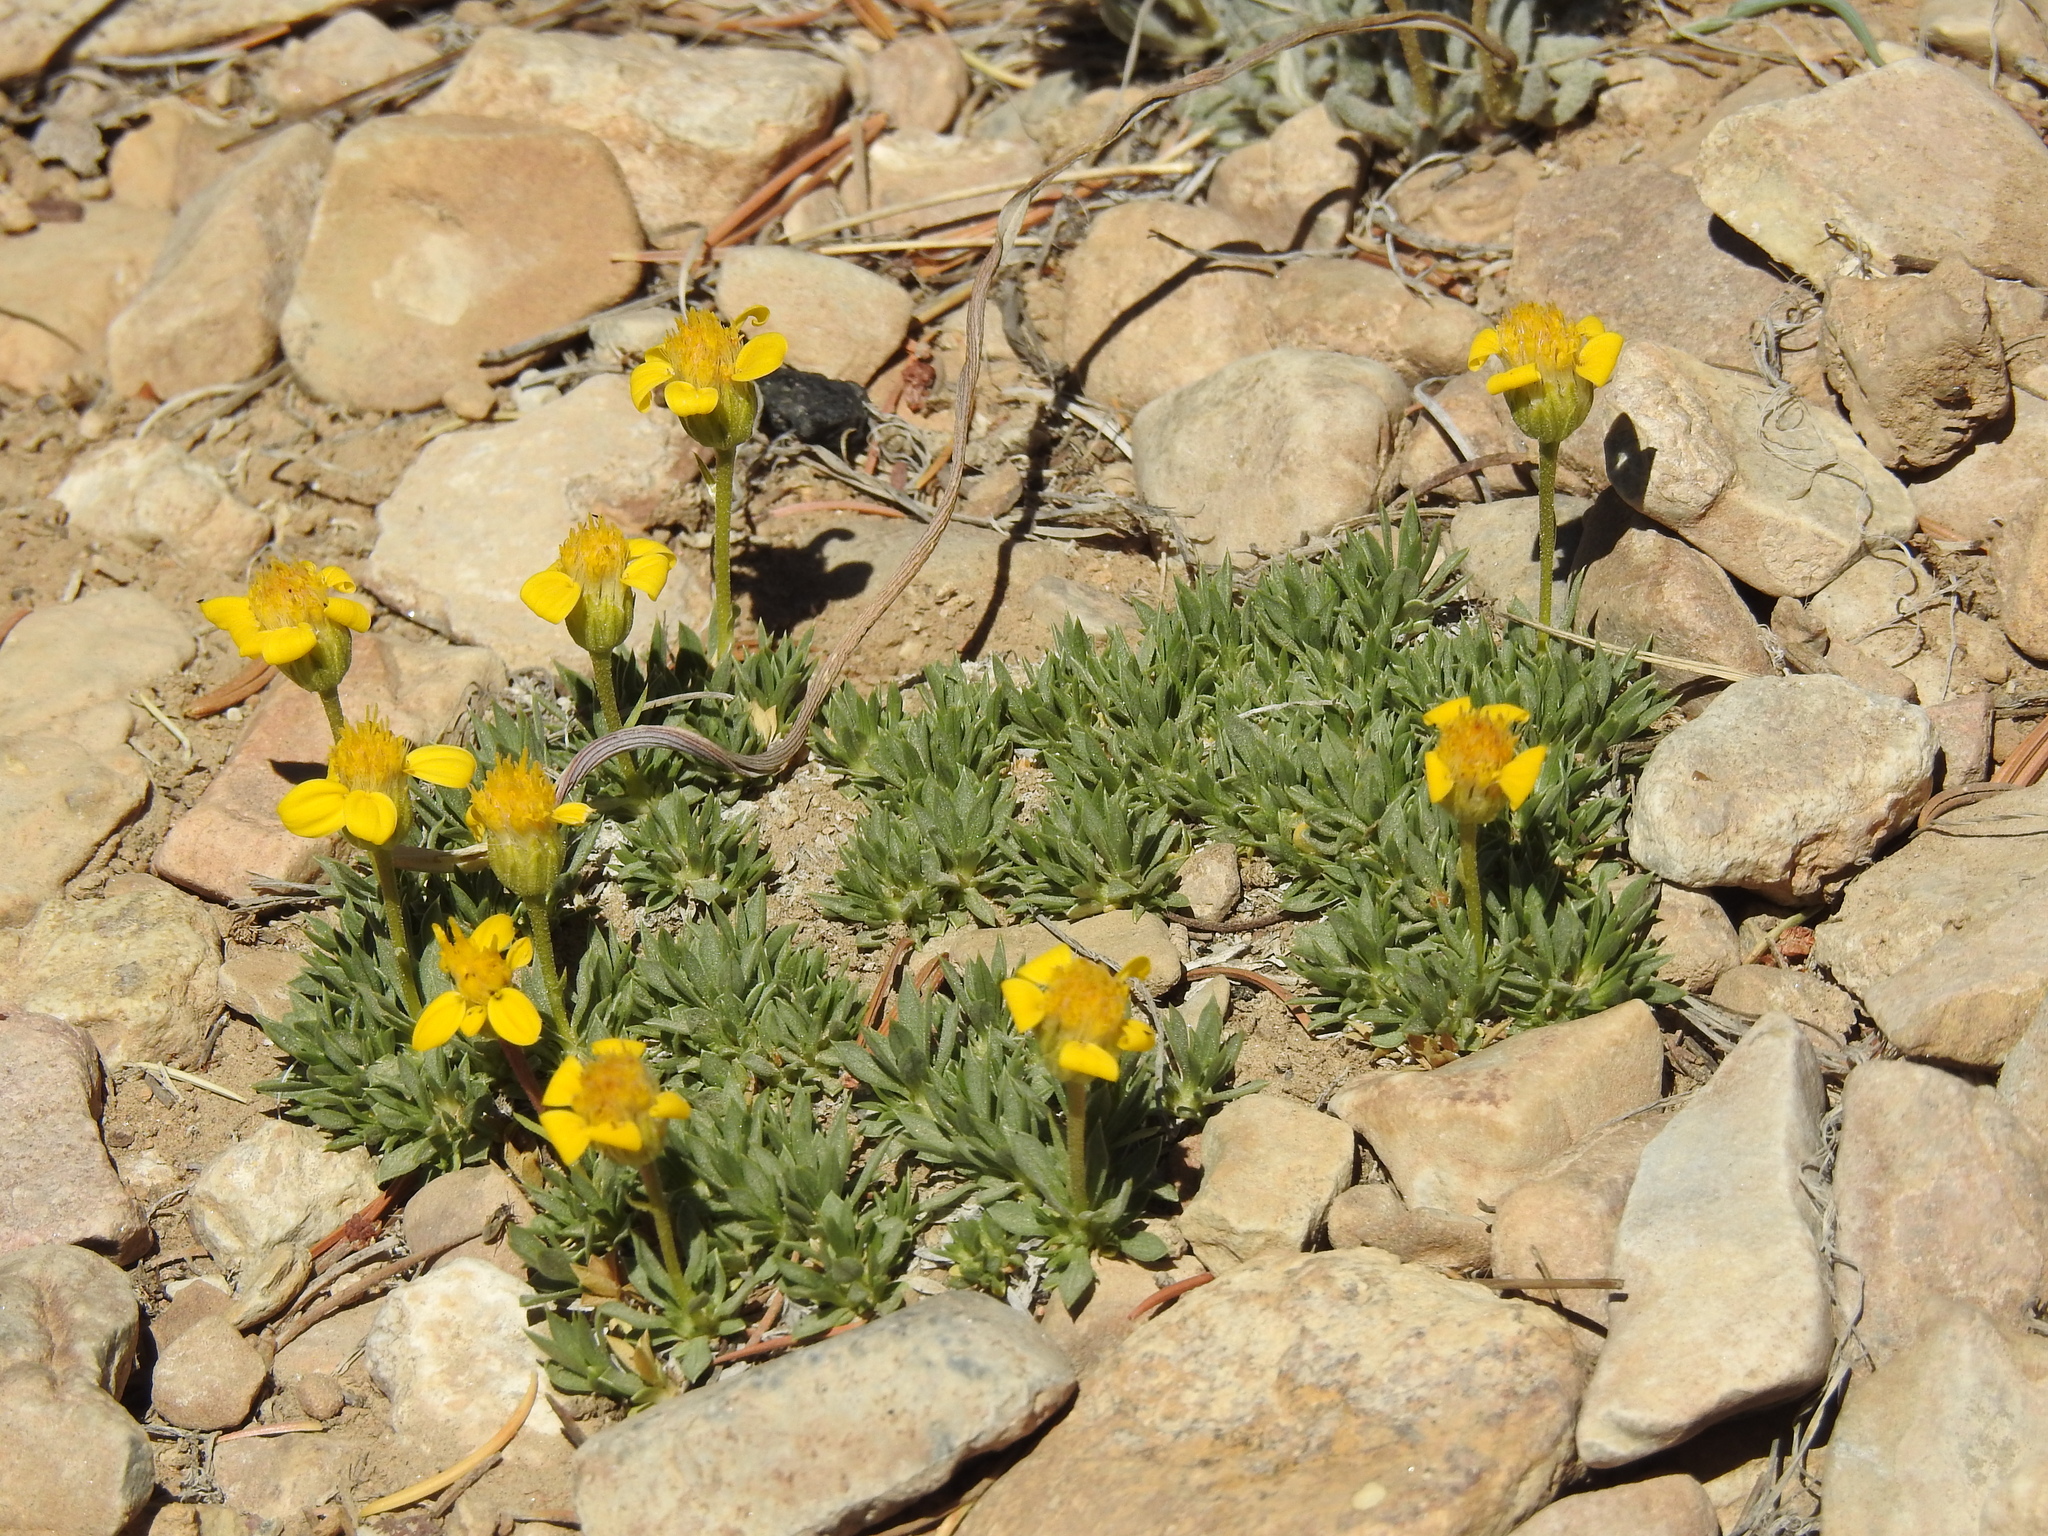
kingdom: Plantae
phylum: Tracheophyta
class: Magnoliopsida
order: Asterales
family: Asteraceae
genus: Stenotus
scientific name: Stenotus acaulis
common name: Stemless goldenweed
